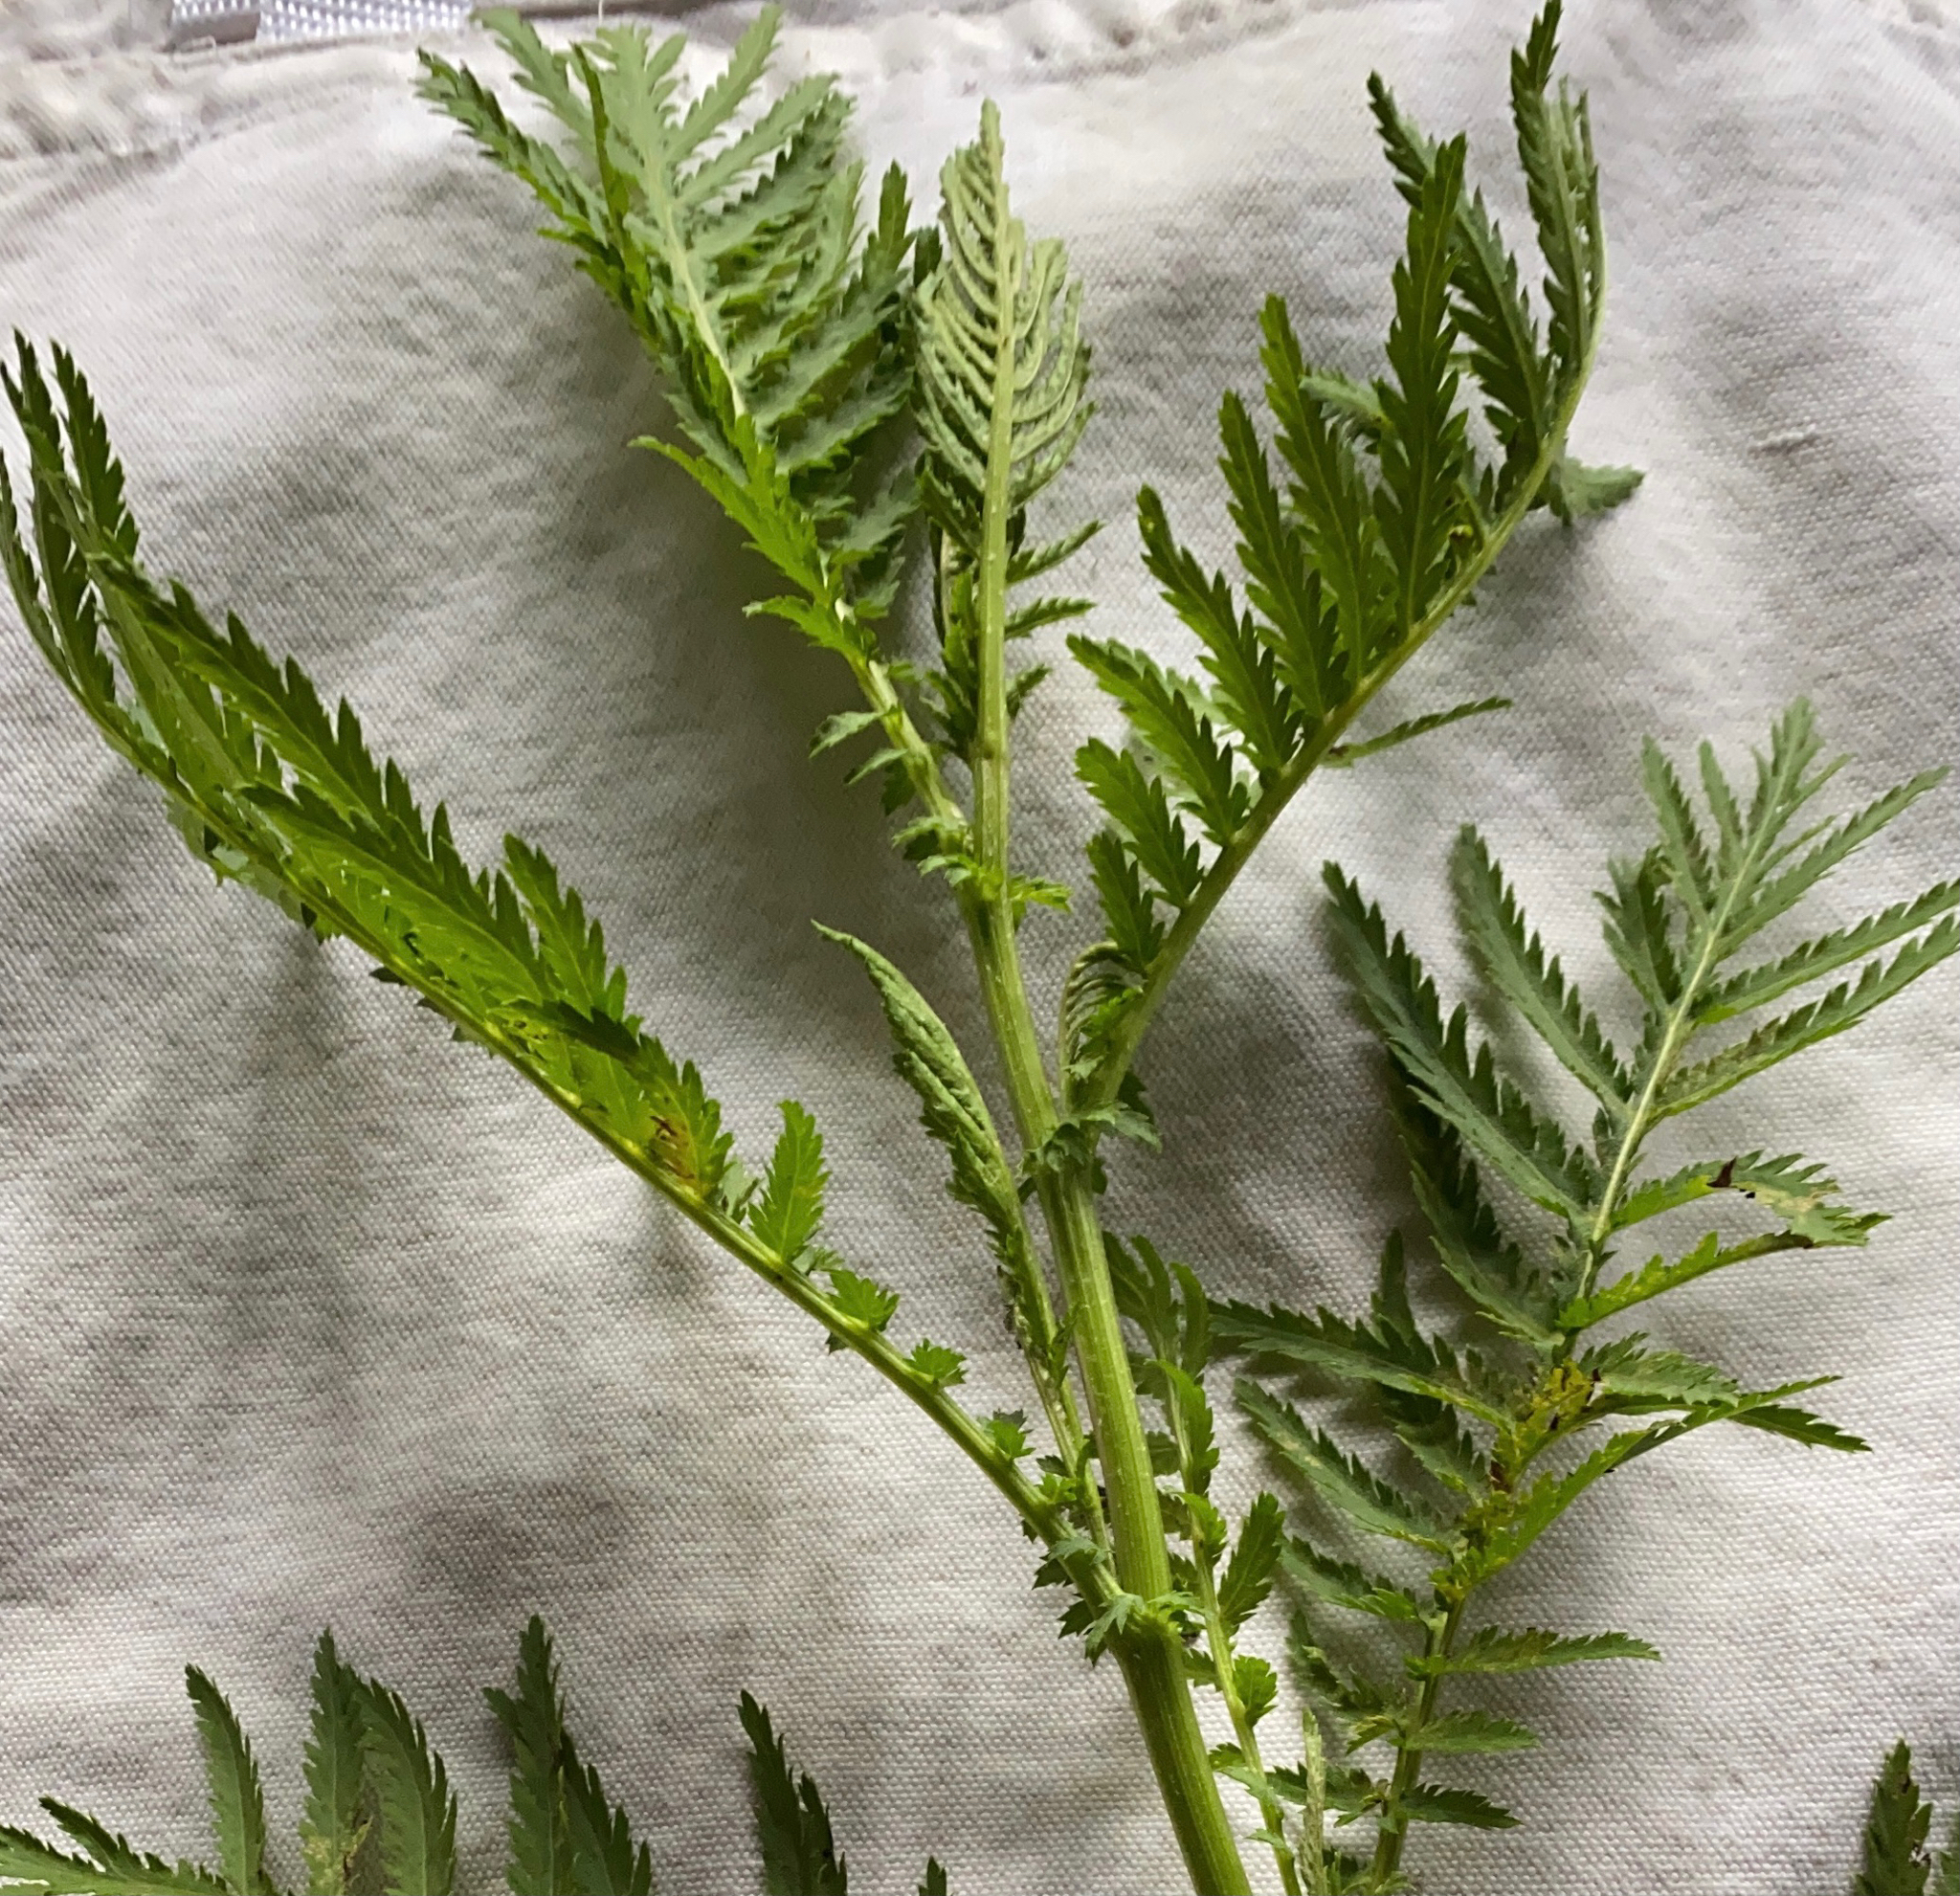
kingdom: Plantae
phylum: Tracheophyta
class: Magnoliopsida
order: Asterales
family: Asteraceae
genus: Tanacetum
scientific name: Tanacetum vulgare
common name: Common tansy
